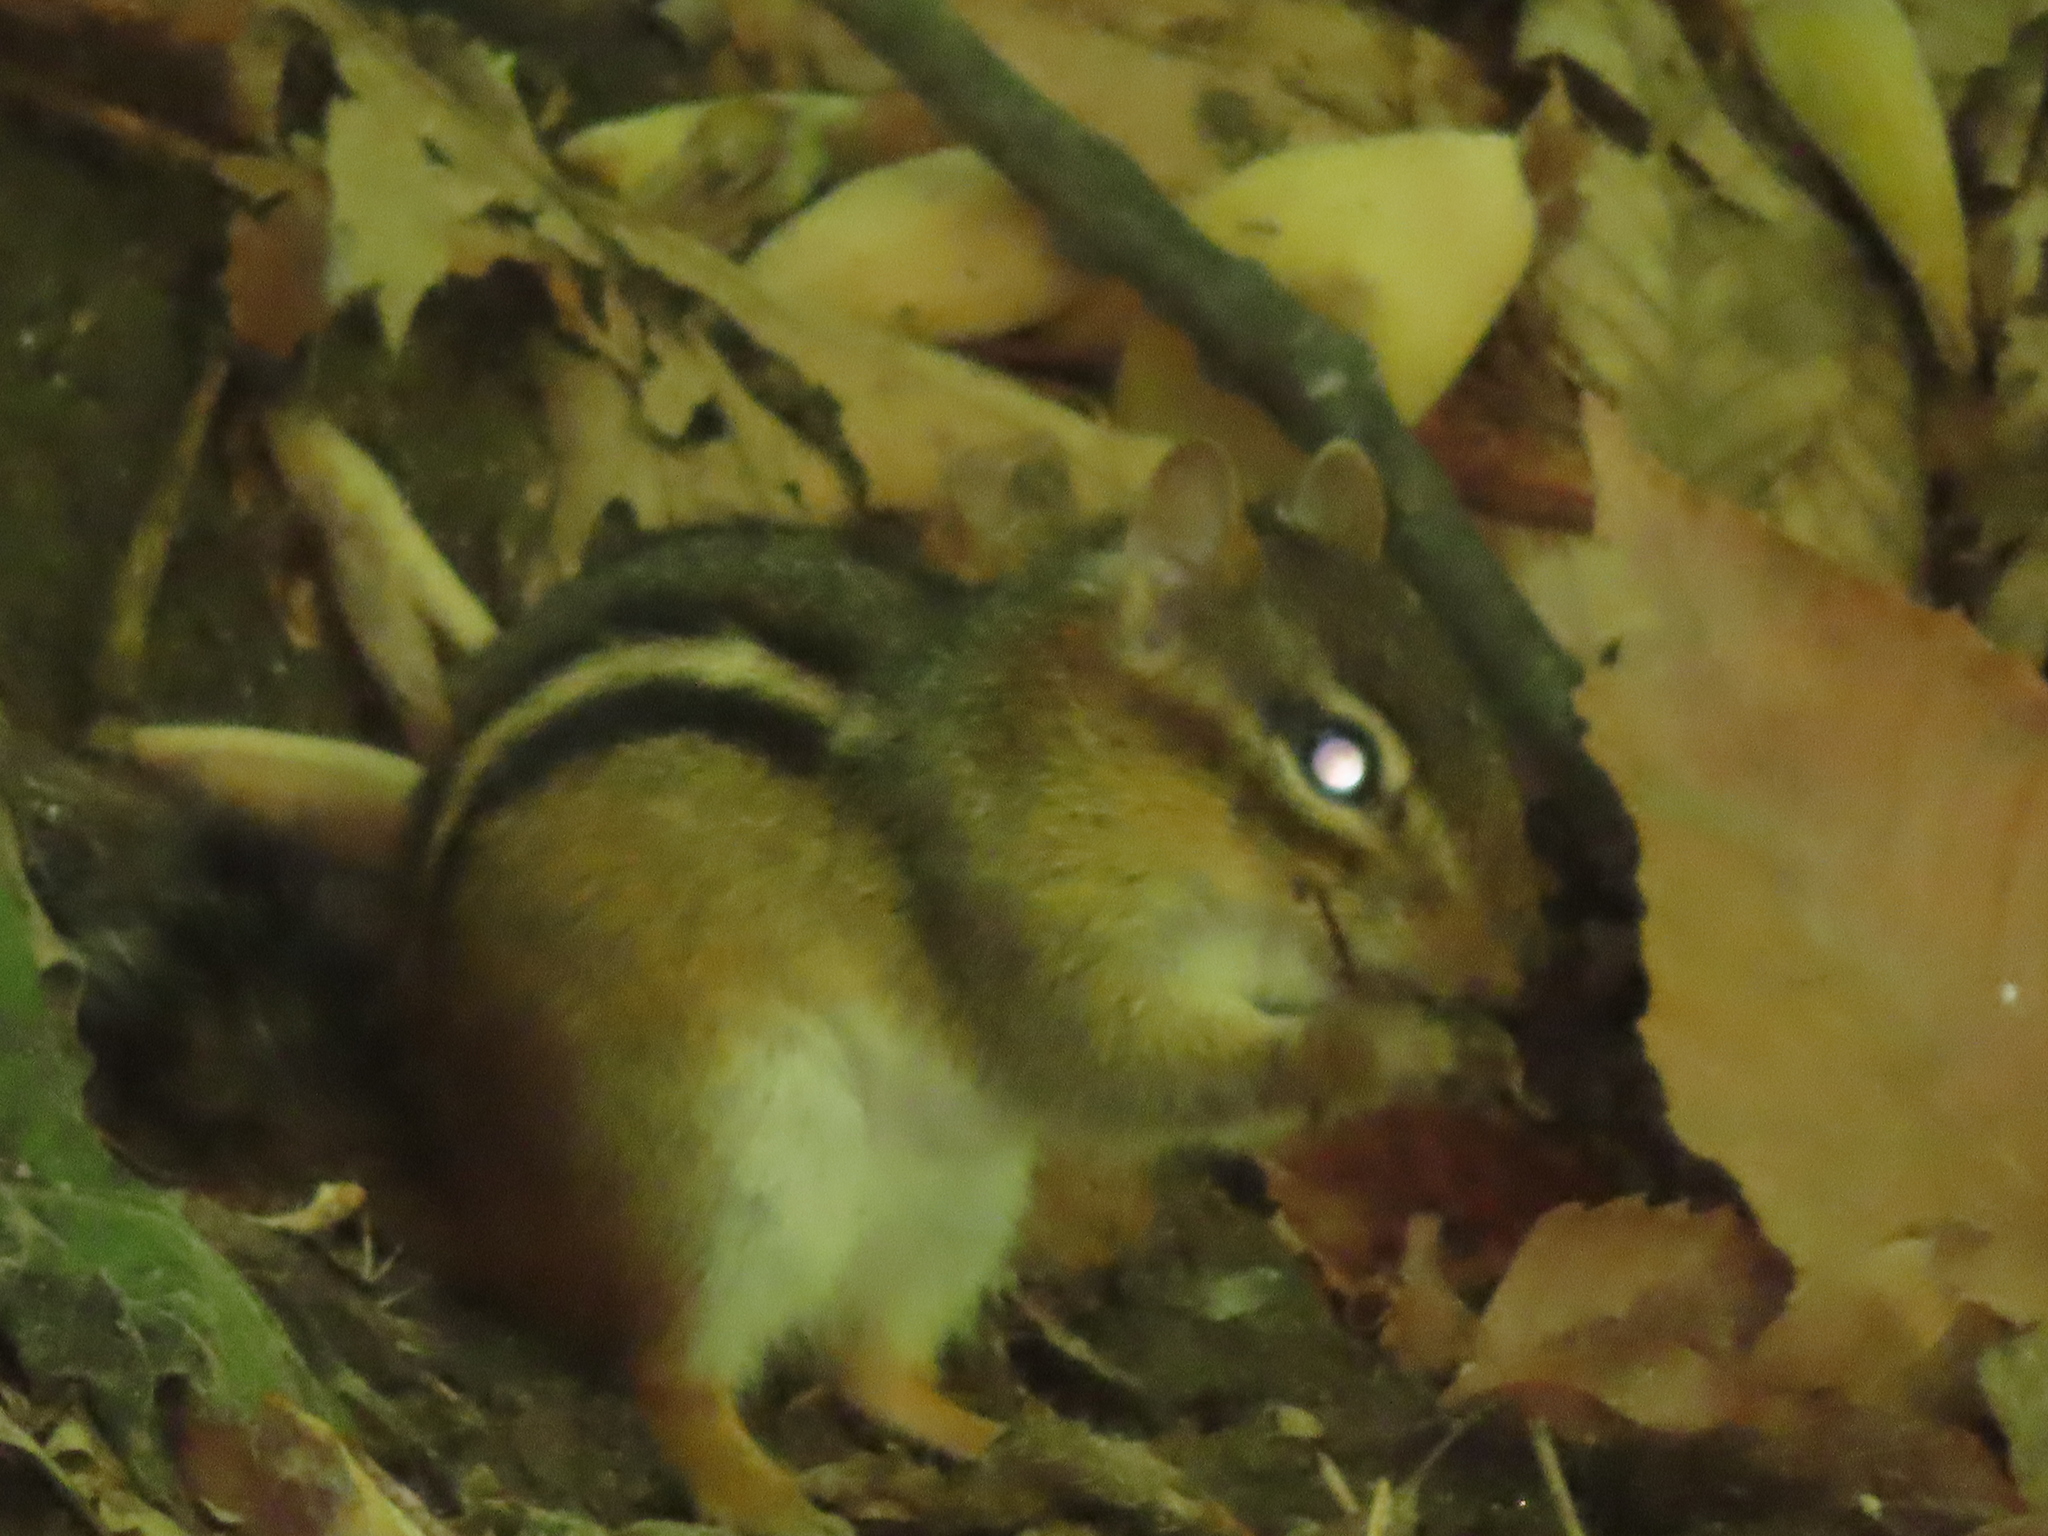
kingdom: Animalia
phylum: Chordata
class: Mammalia
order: Rodentia
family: Sciuridae
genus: Tamias
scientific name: Tamias striatus
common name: Eastern chipmunk
